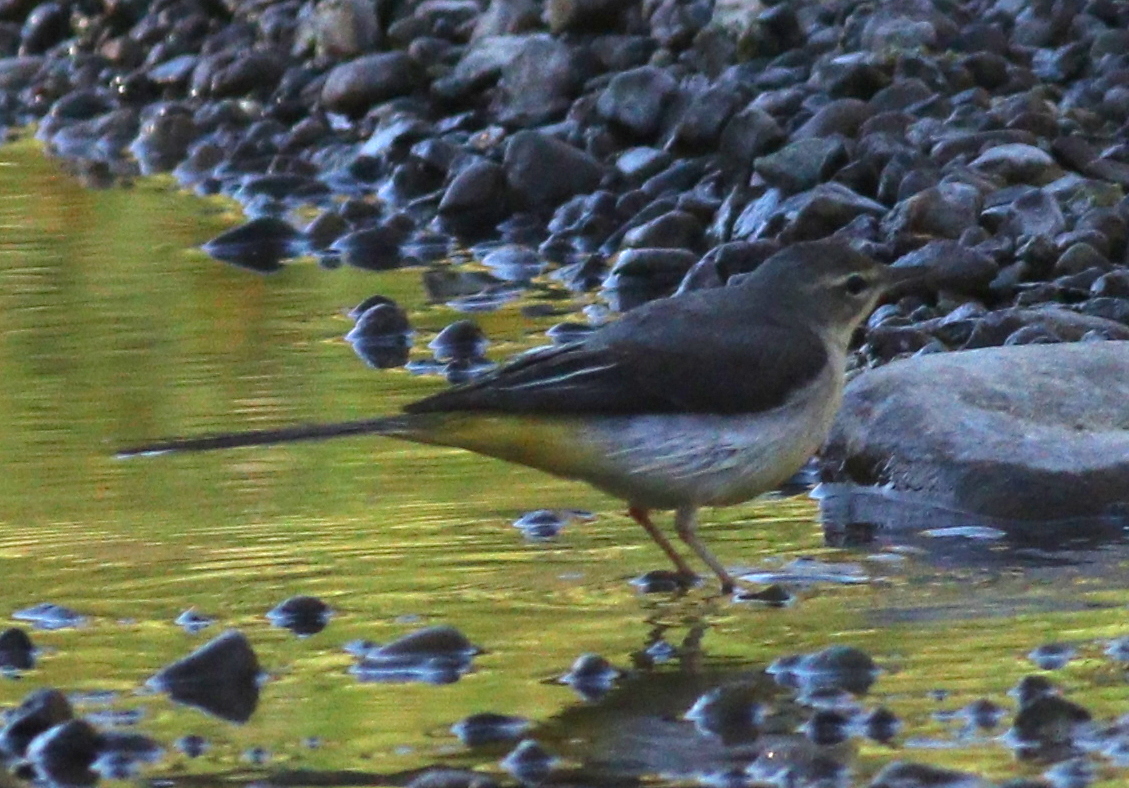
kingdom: Animalia
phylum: Chordata
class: Aves
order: Passeriformes
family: Motacillidae
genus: Motacilla
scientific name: Motacilla cinerea
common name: Grey wagtail
